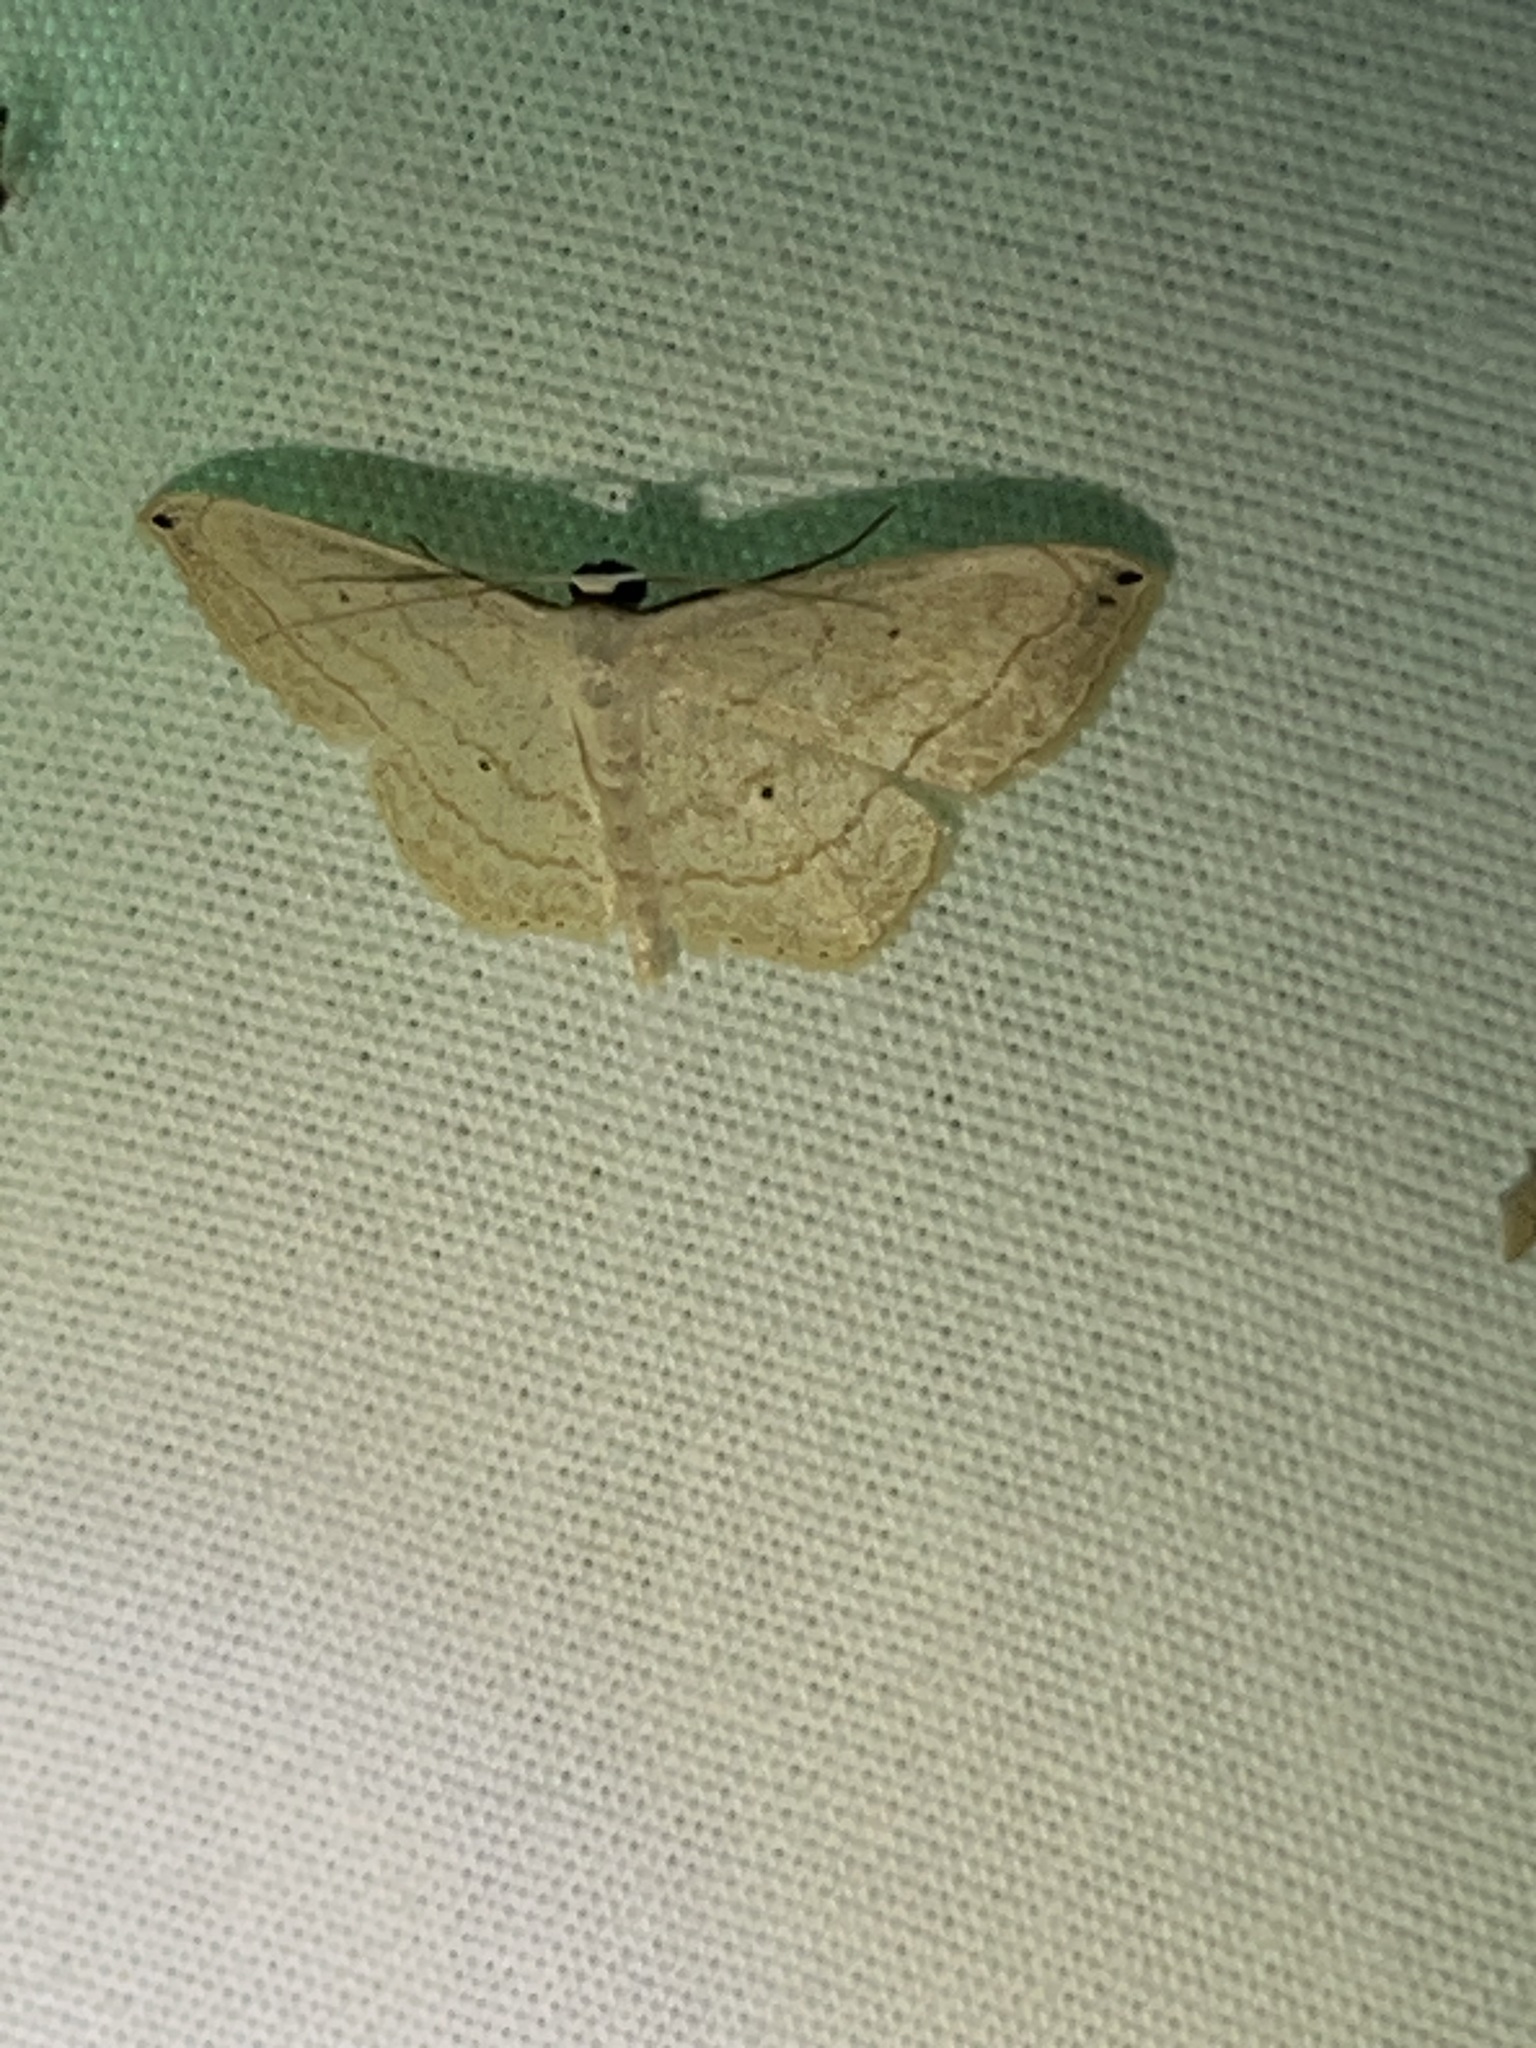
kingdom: Animalia
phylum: Arthropoda
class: Insecta
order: Lepidoptera
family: Geometridae
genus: Scopula
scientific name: Scopula umbilicata
